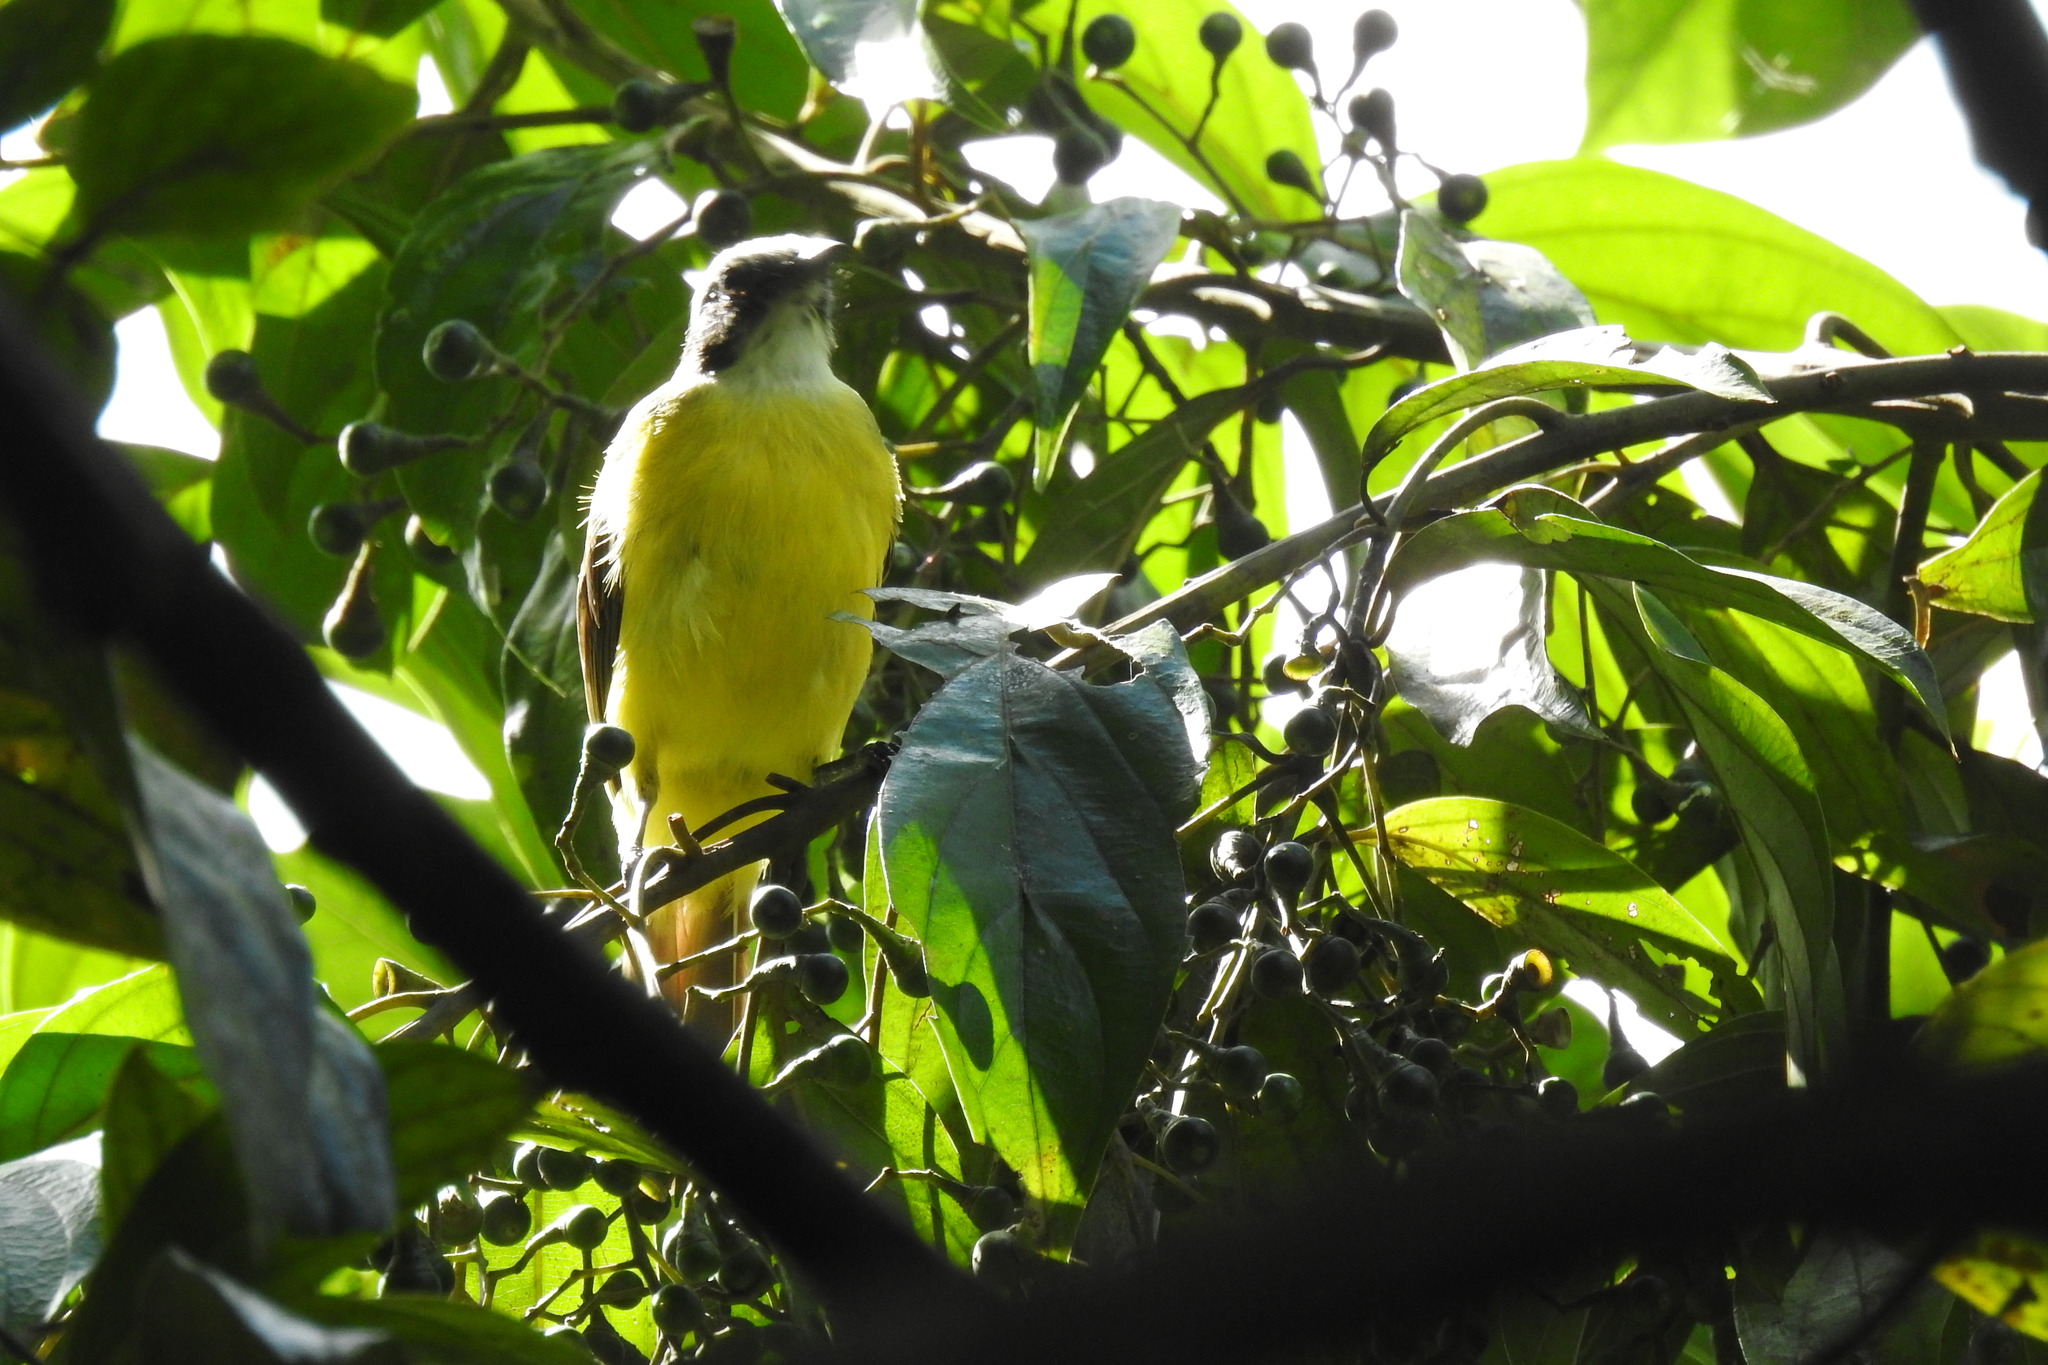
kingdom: Animalia
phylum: Chordata
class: Aves
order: Passeriformes
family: Tyrannidae
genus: Myiozetetes
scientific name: Myiozetetes similis
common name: Social flycatcher
